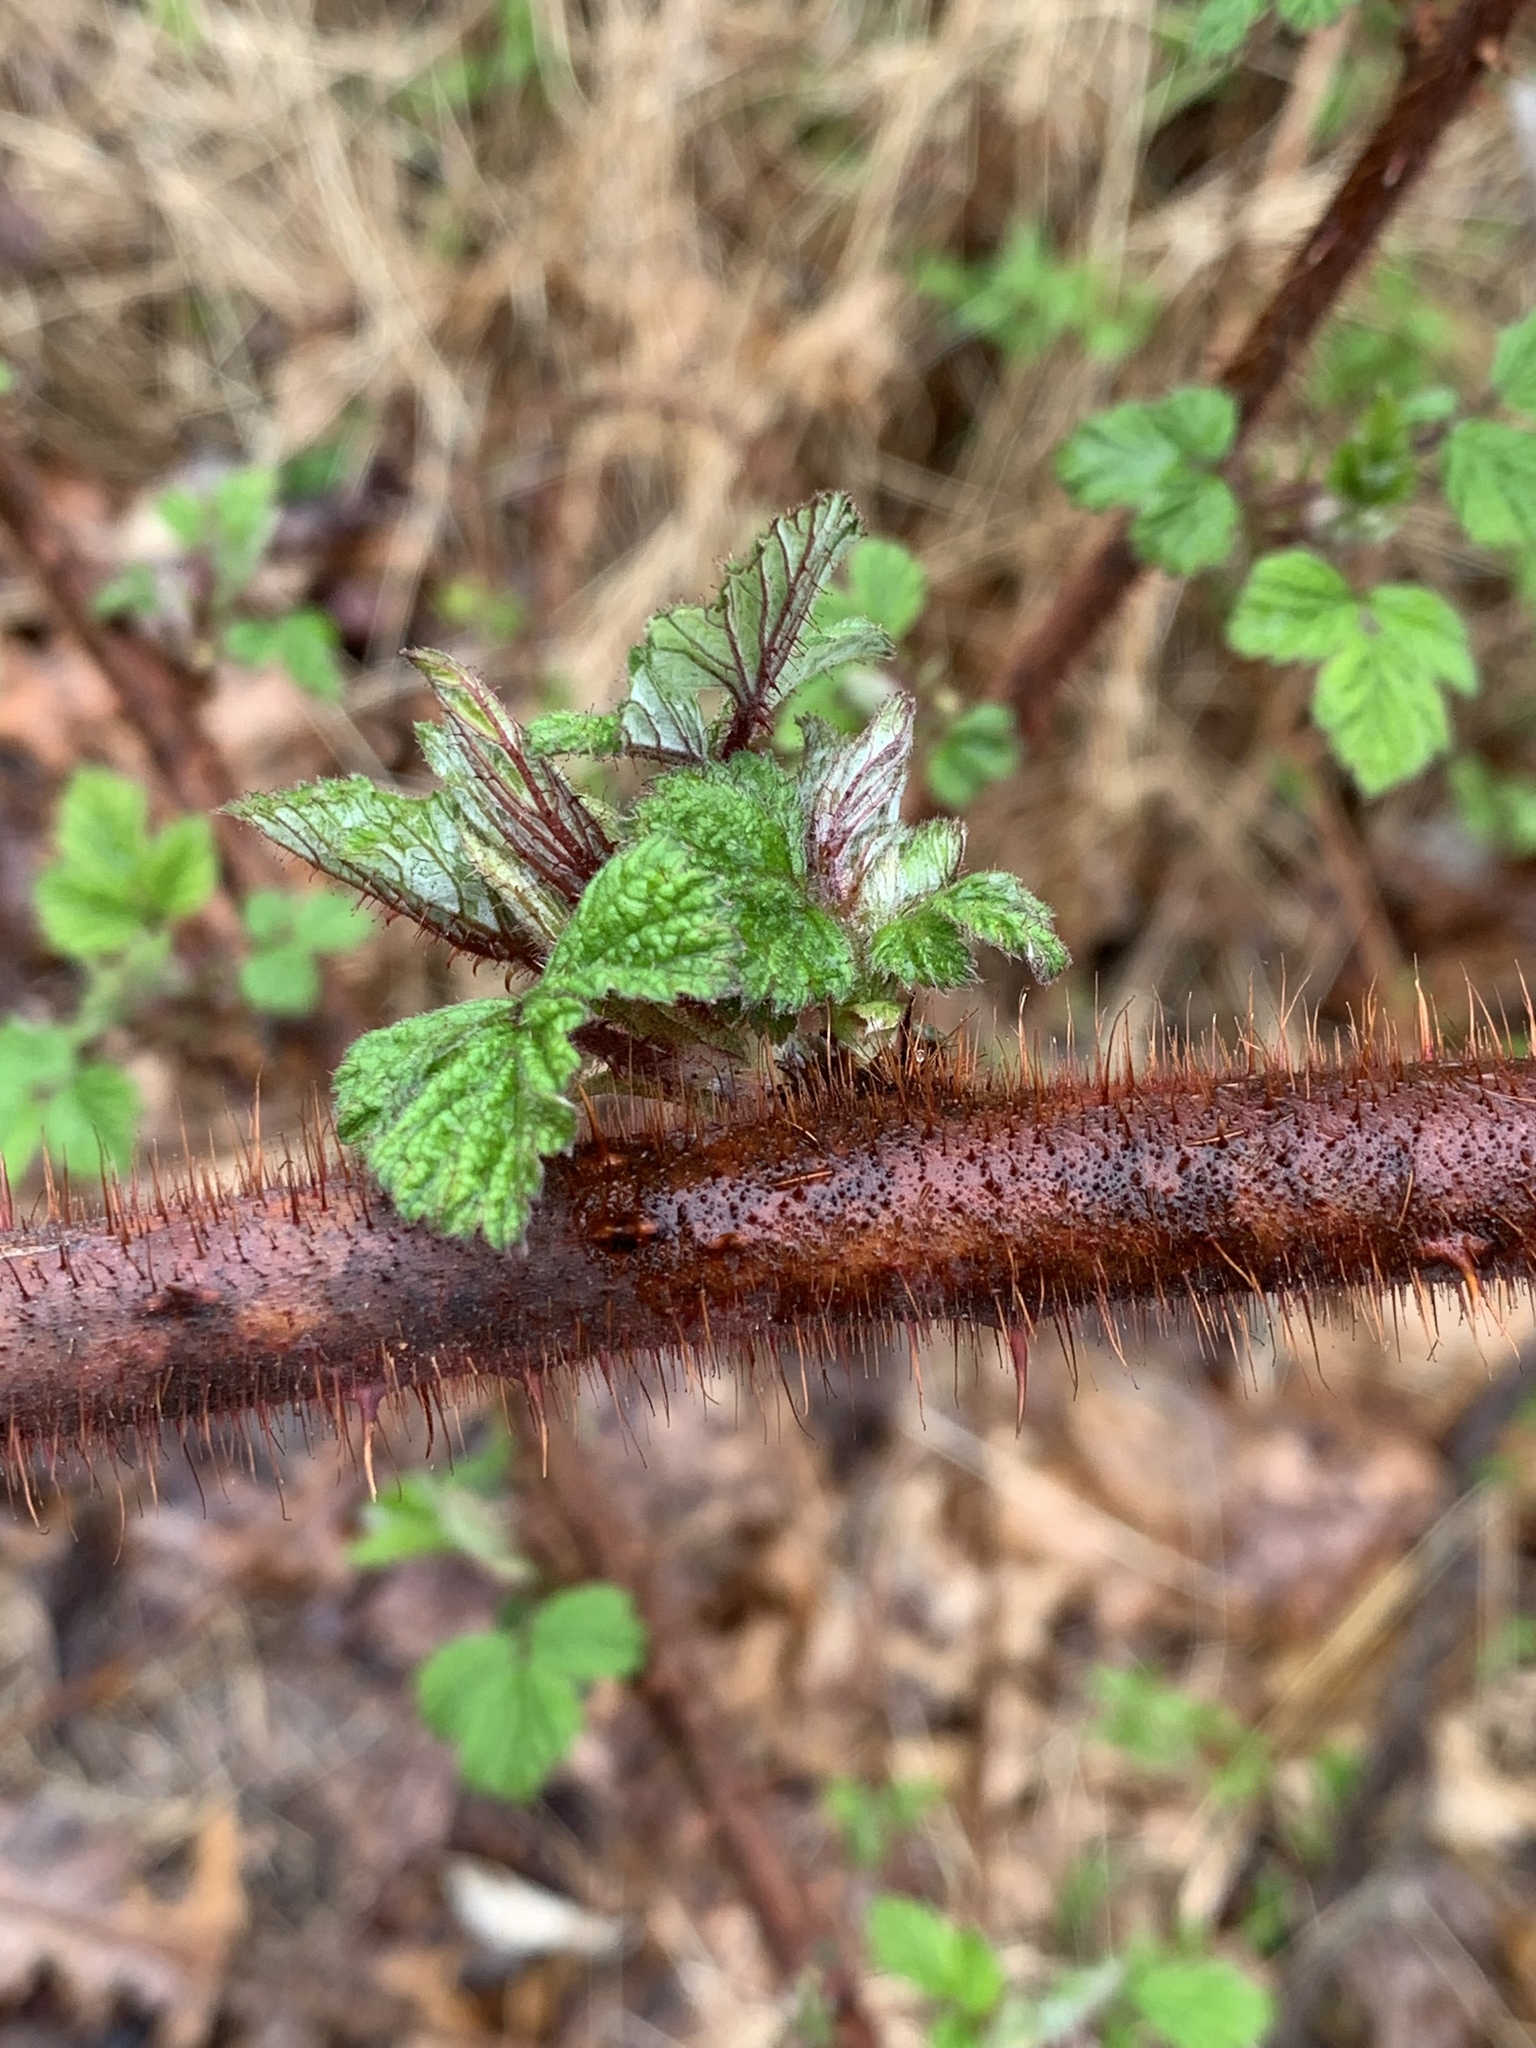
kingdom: Plantae
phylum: Tracheophyta
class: Magnoliopsida
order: Rosales
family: Rosaceae
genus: Rubus
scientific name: Rubus phoenicolasius
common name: Japanese wineberry
